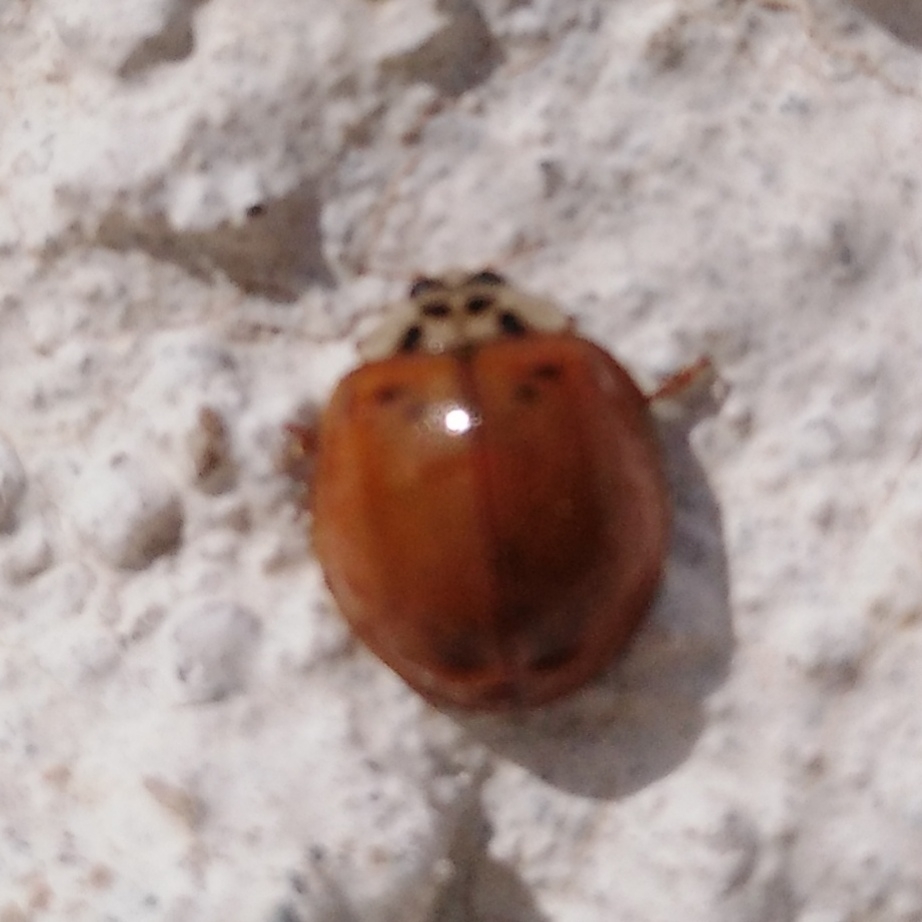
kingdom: Animalia
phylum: Arthropoda
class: Insecta
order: Coleoptera
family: Coccinellidae
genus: Harmonia
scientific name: Harmonia axyridis
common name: Harlequin ladybird
